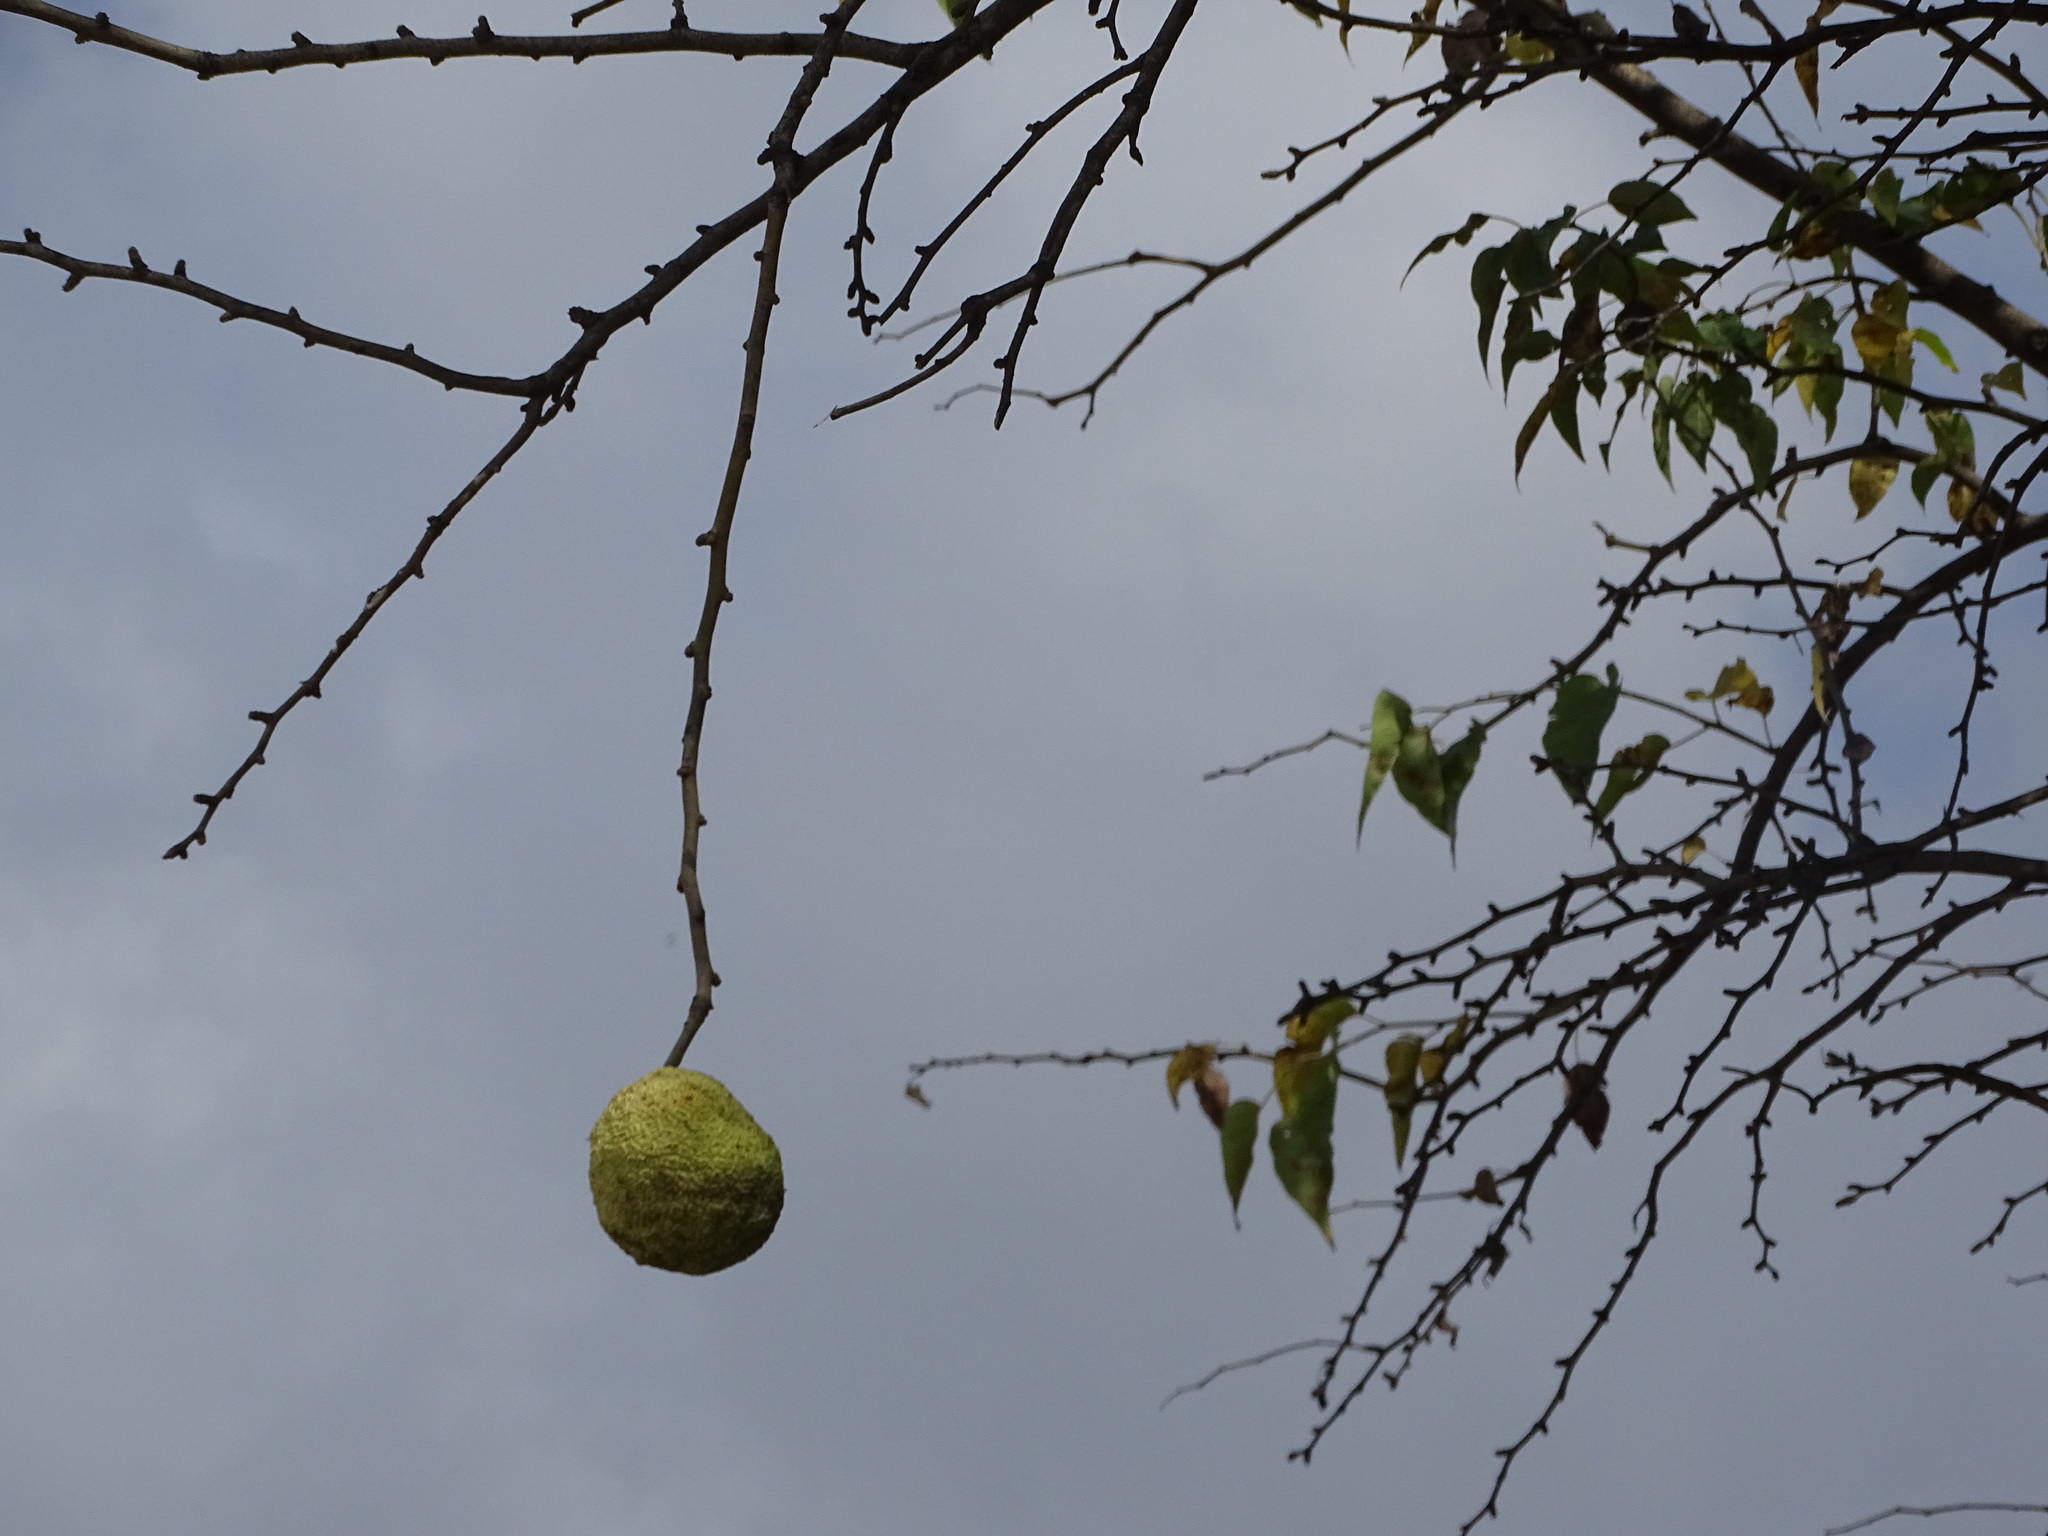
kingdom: Plantae
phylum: Tracheophyta
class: Magnoliopsida
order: Rosales
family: Moraceae
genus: Maclura
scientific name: Maclura pomifera
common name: Osage-orange
